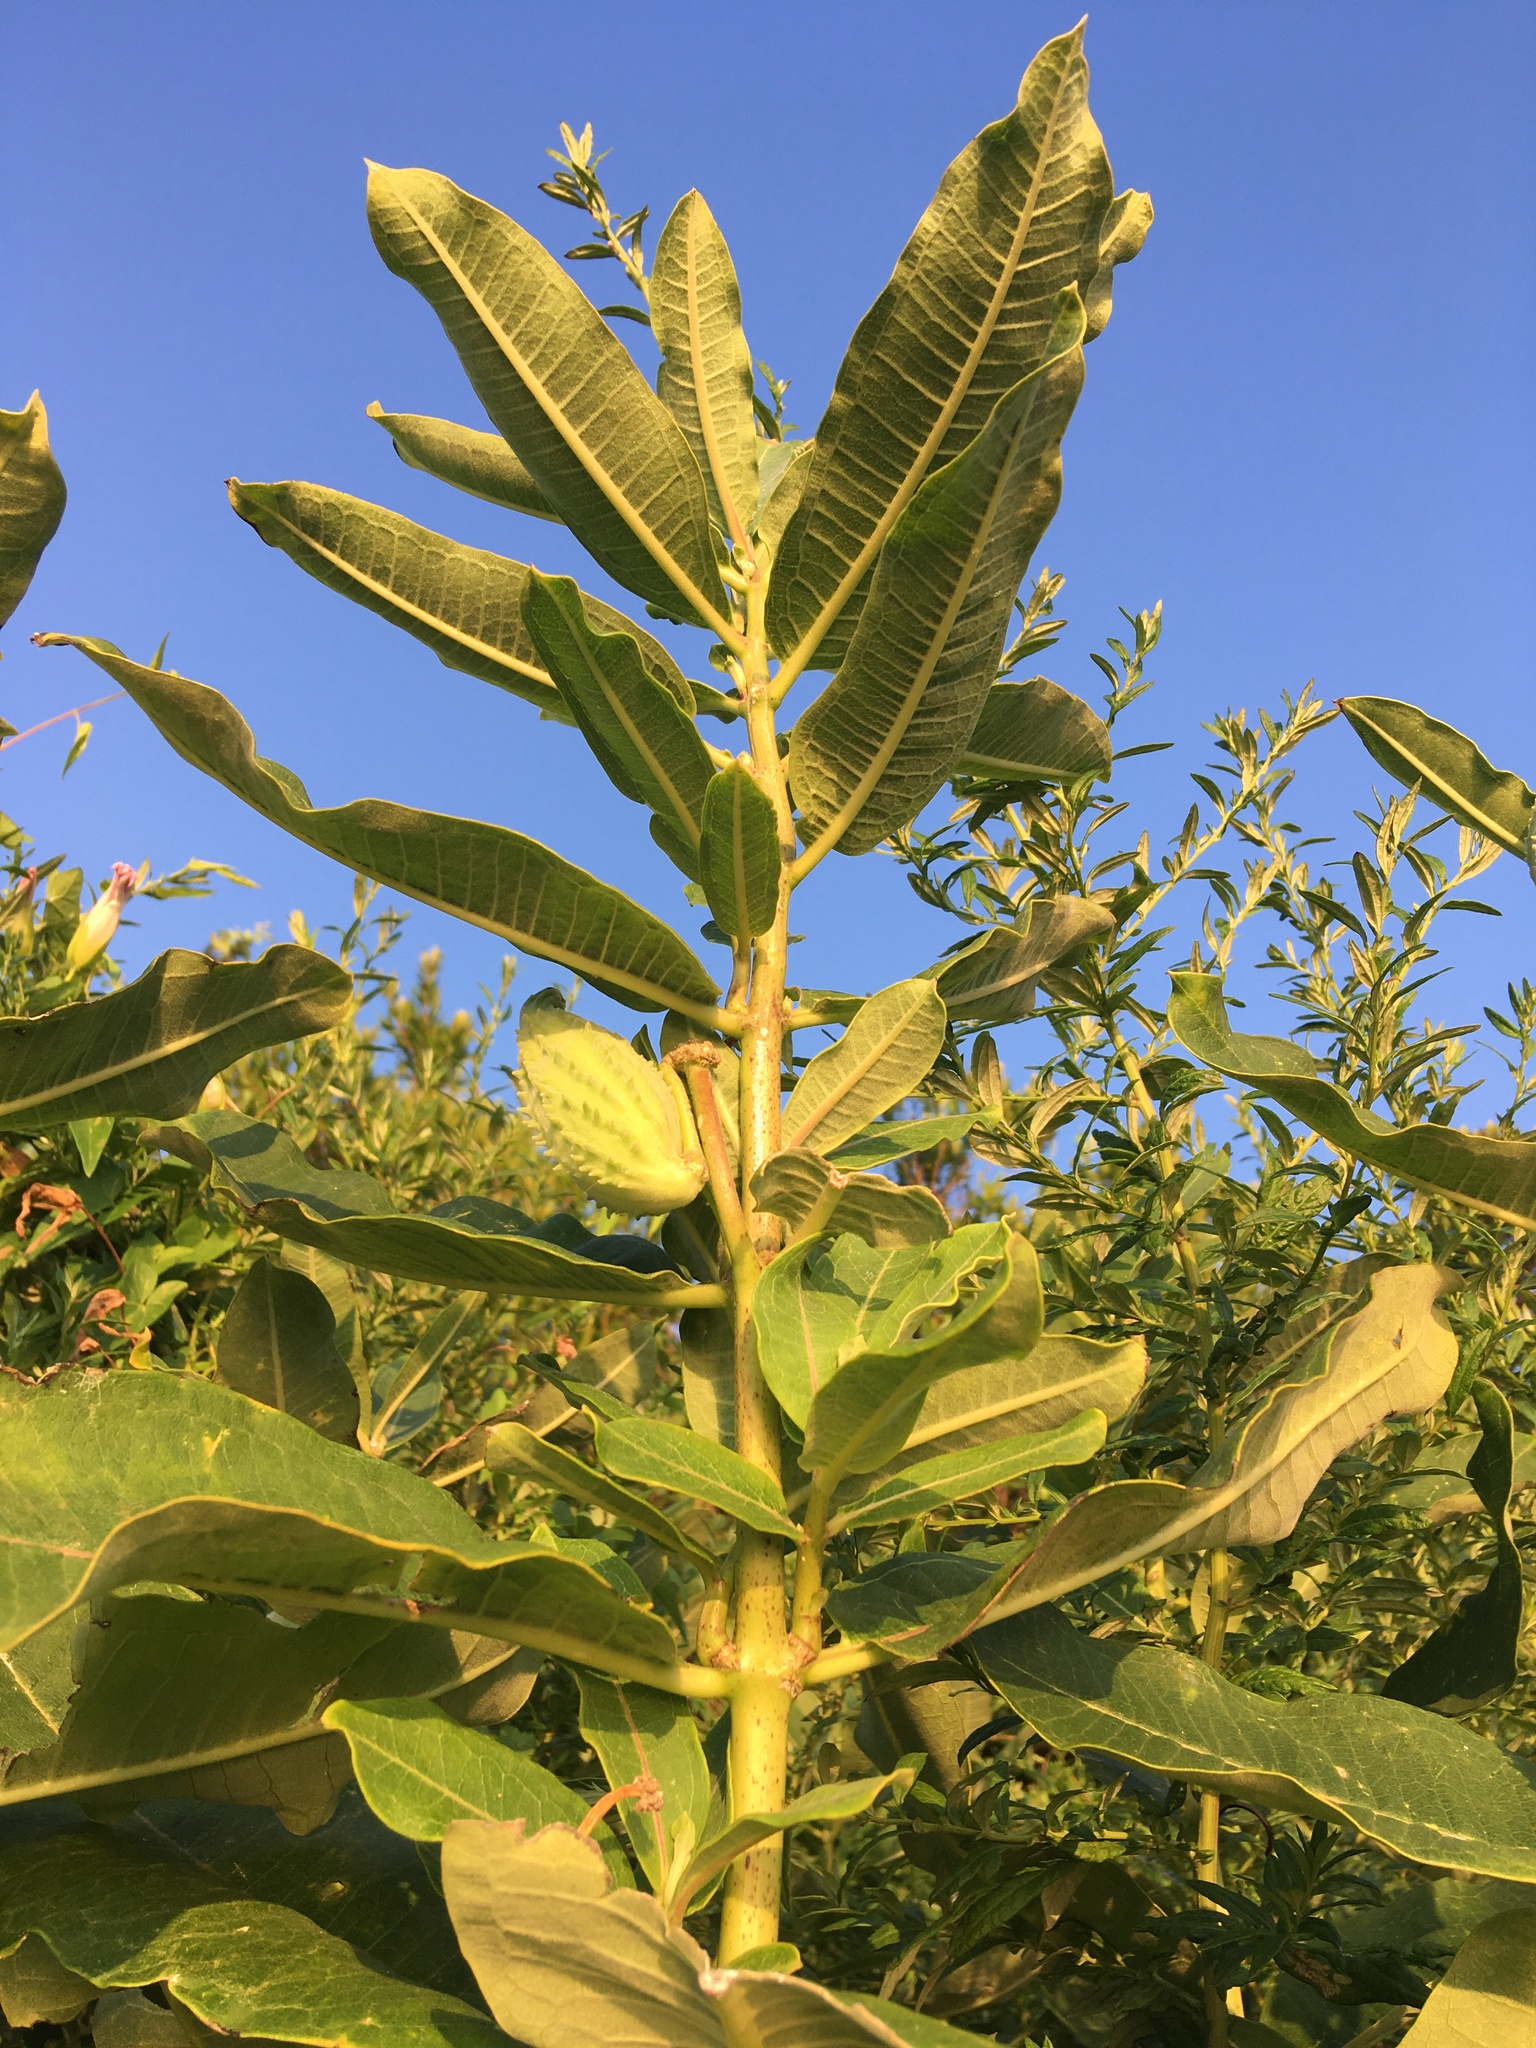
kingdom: Plantae
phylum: Tracheophyta
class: Magnoliopsida
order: Gentianales
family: Apocynaceae
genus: Asclepias
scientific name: Asclepias syriaca
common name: Common milkweed
